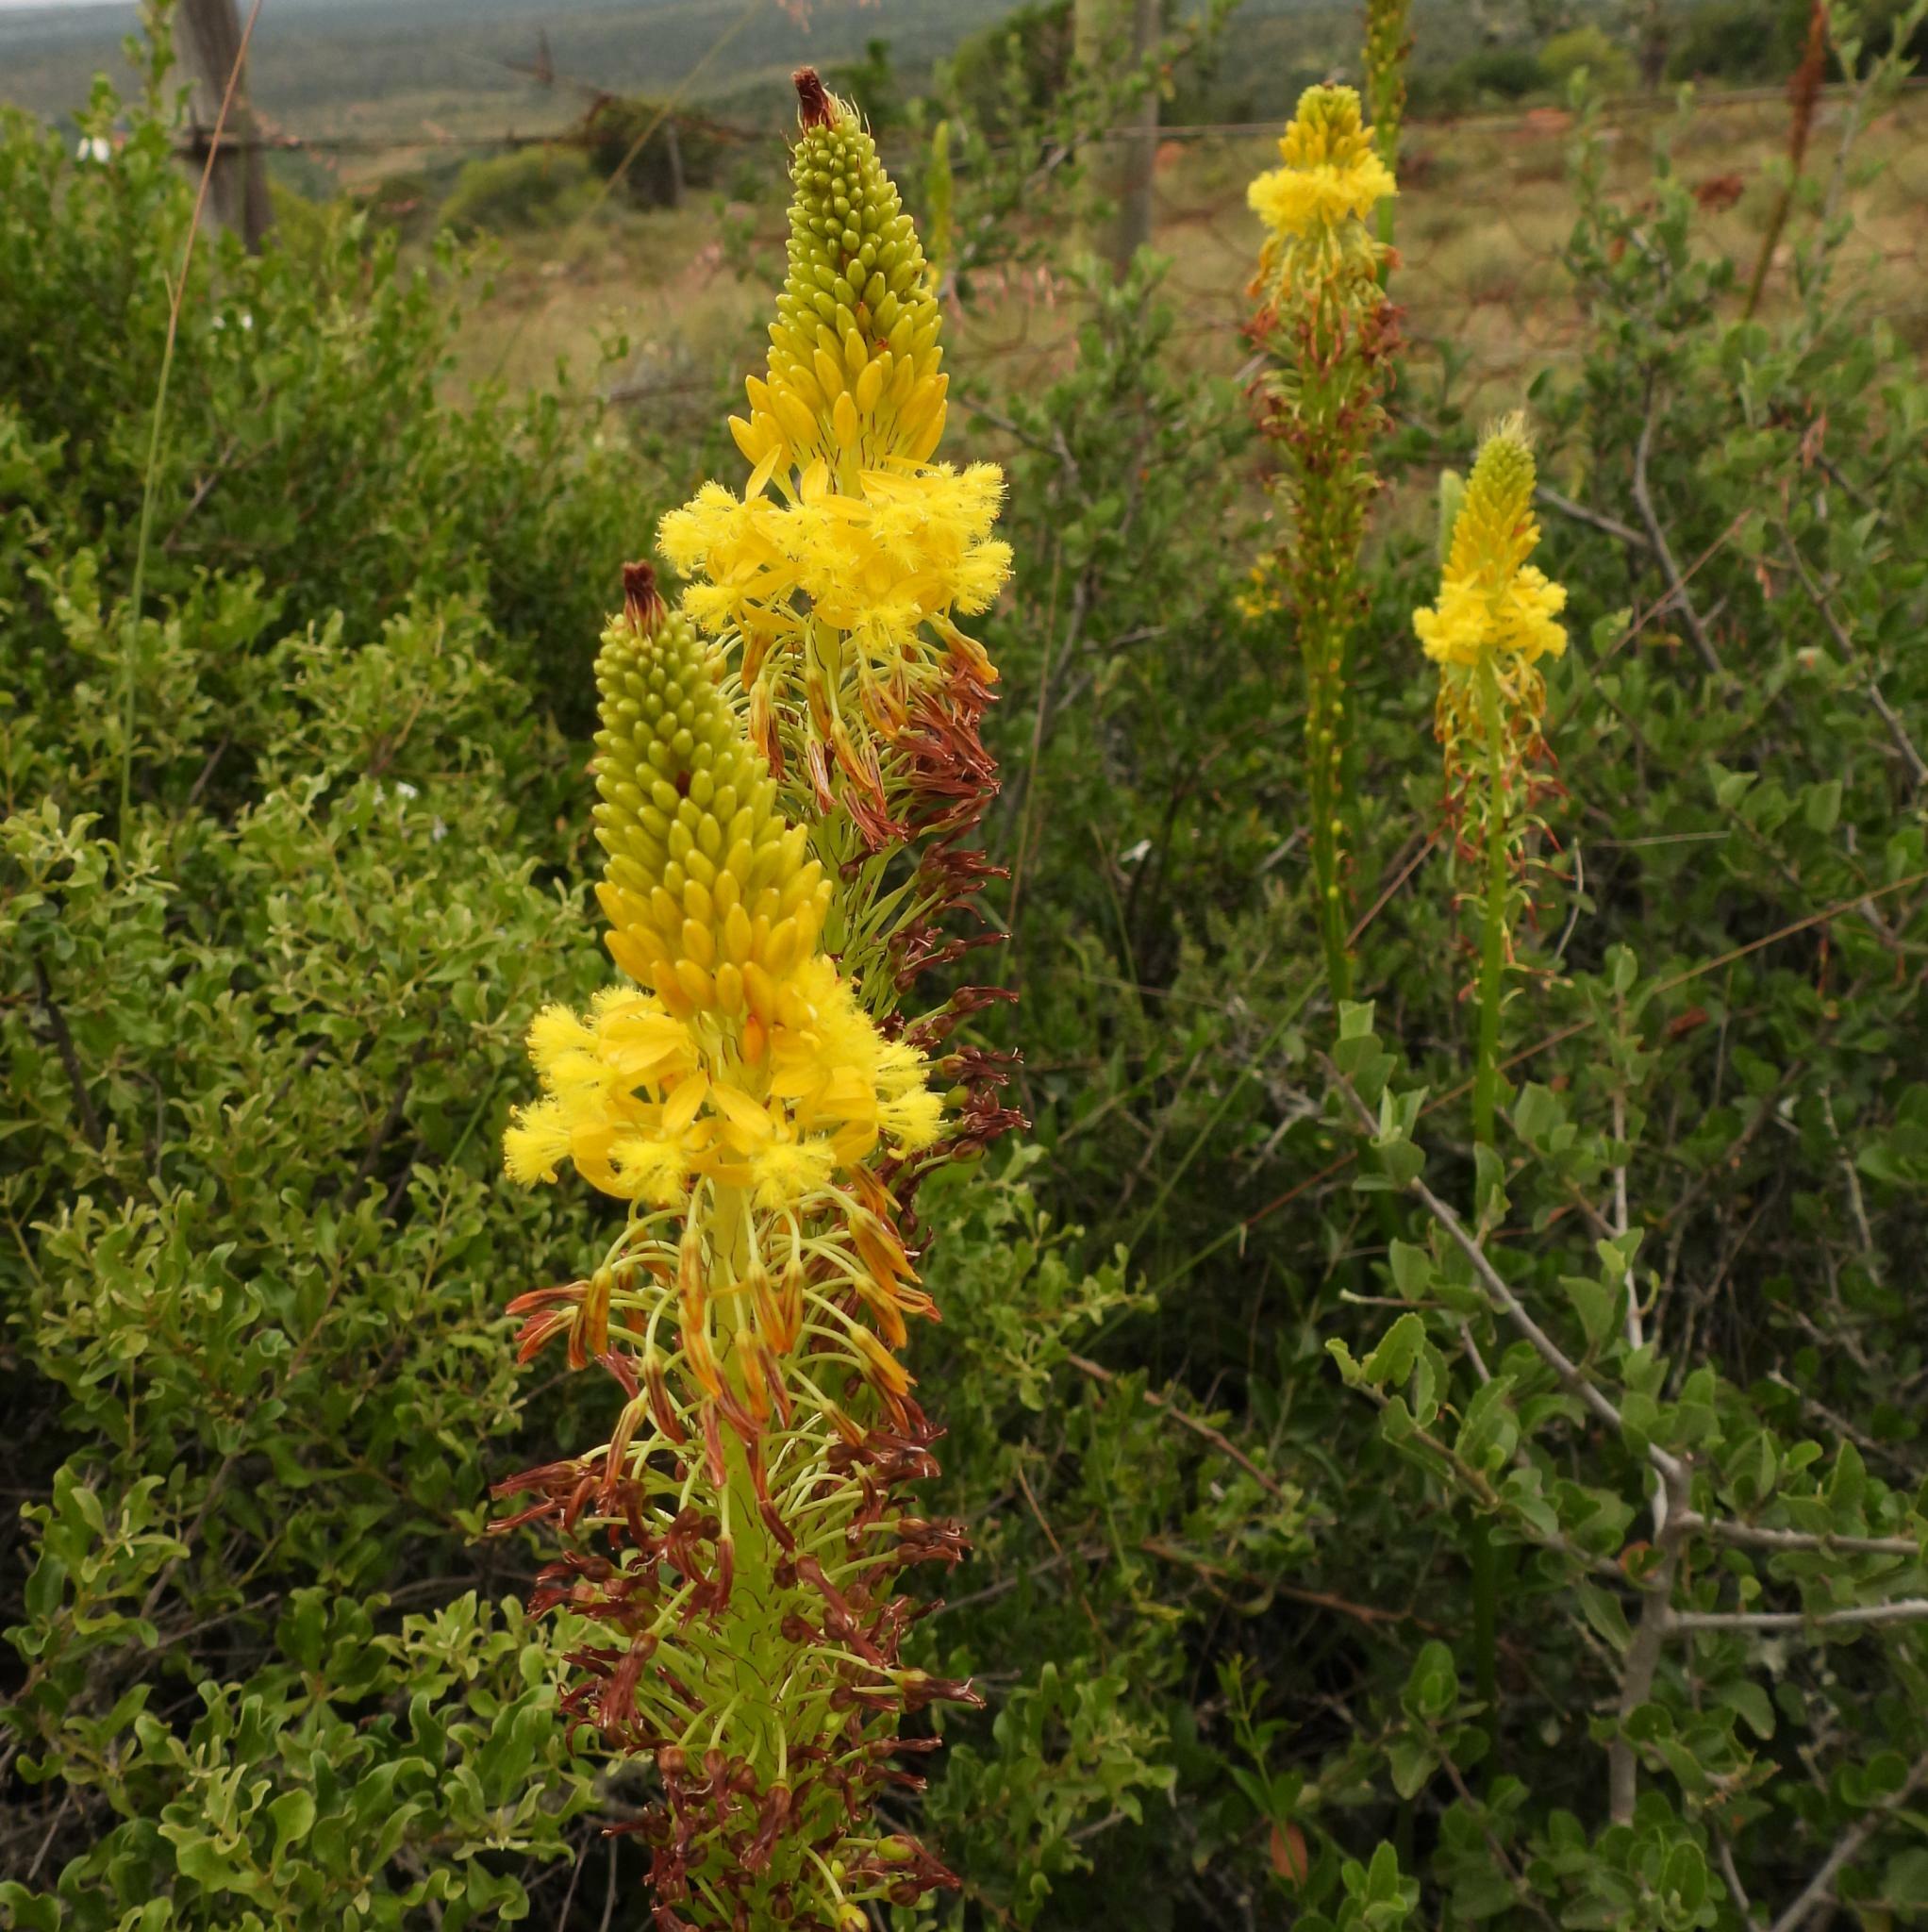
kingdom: Plantae
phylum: Tracheophyta
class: Liliopsida
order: Asparagales
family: Asphodelaceae
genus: Bulbine
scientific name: Bulbine latifolia
